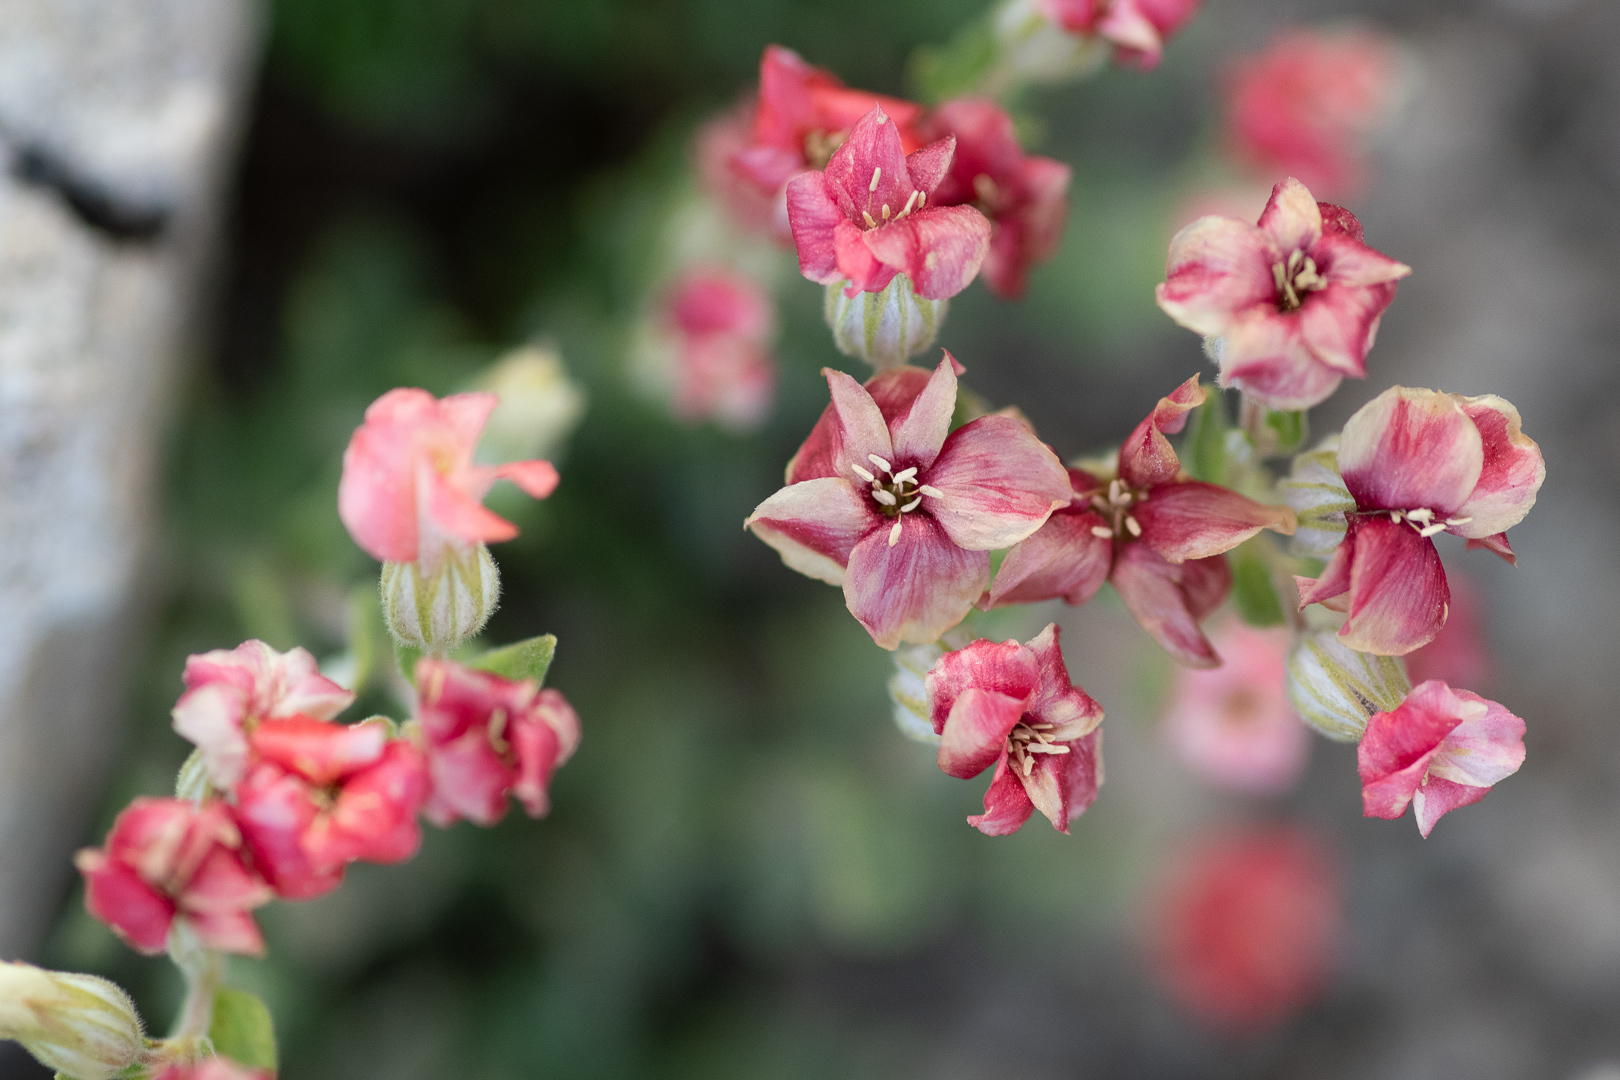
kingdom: Plantae
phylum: Tracheophyta
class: Magnoliopsida
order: Geraniales
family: Vivianiaceae
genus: Viviania
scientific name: Viviania marifolia
